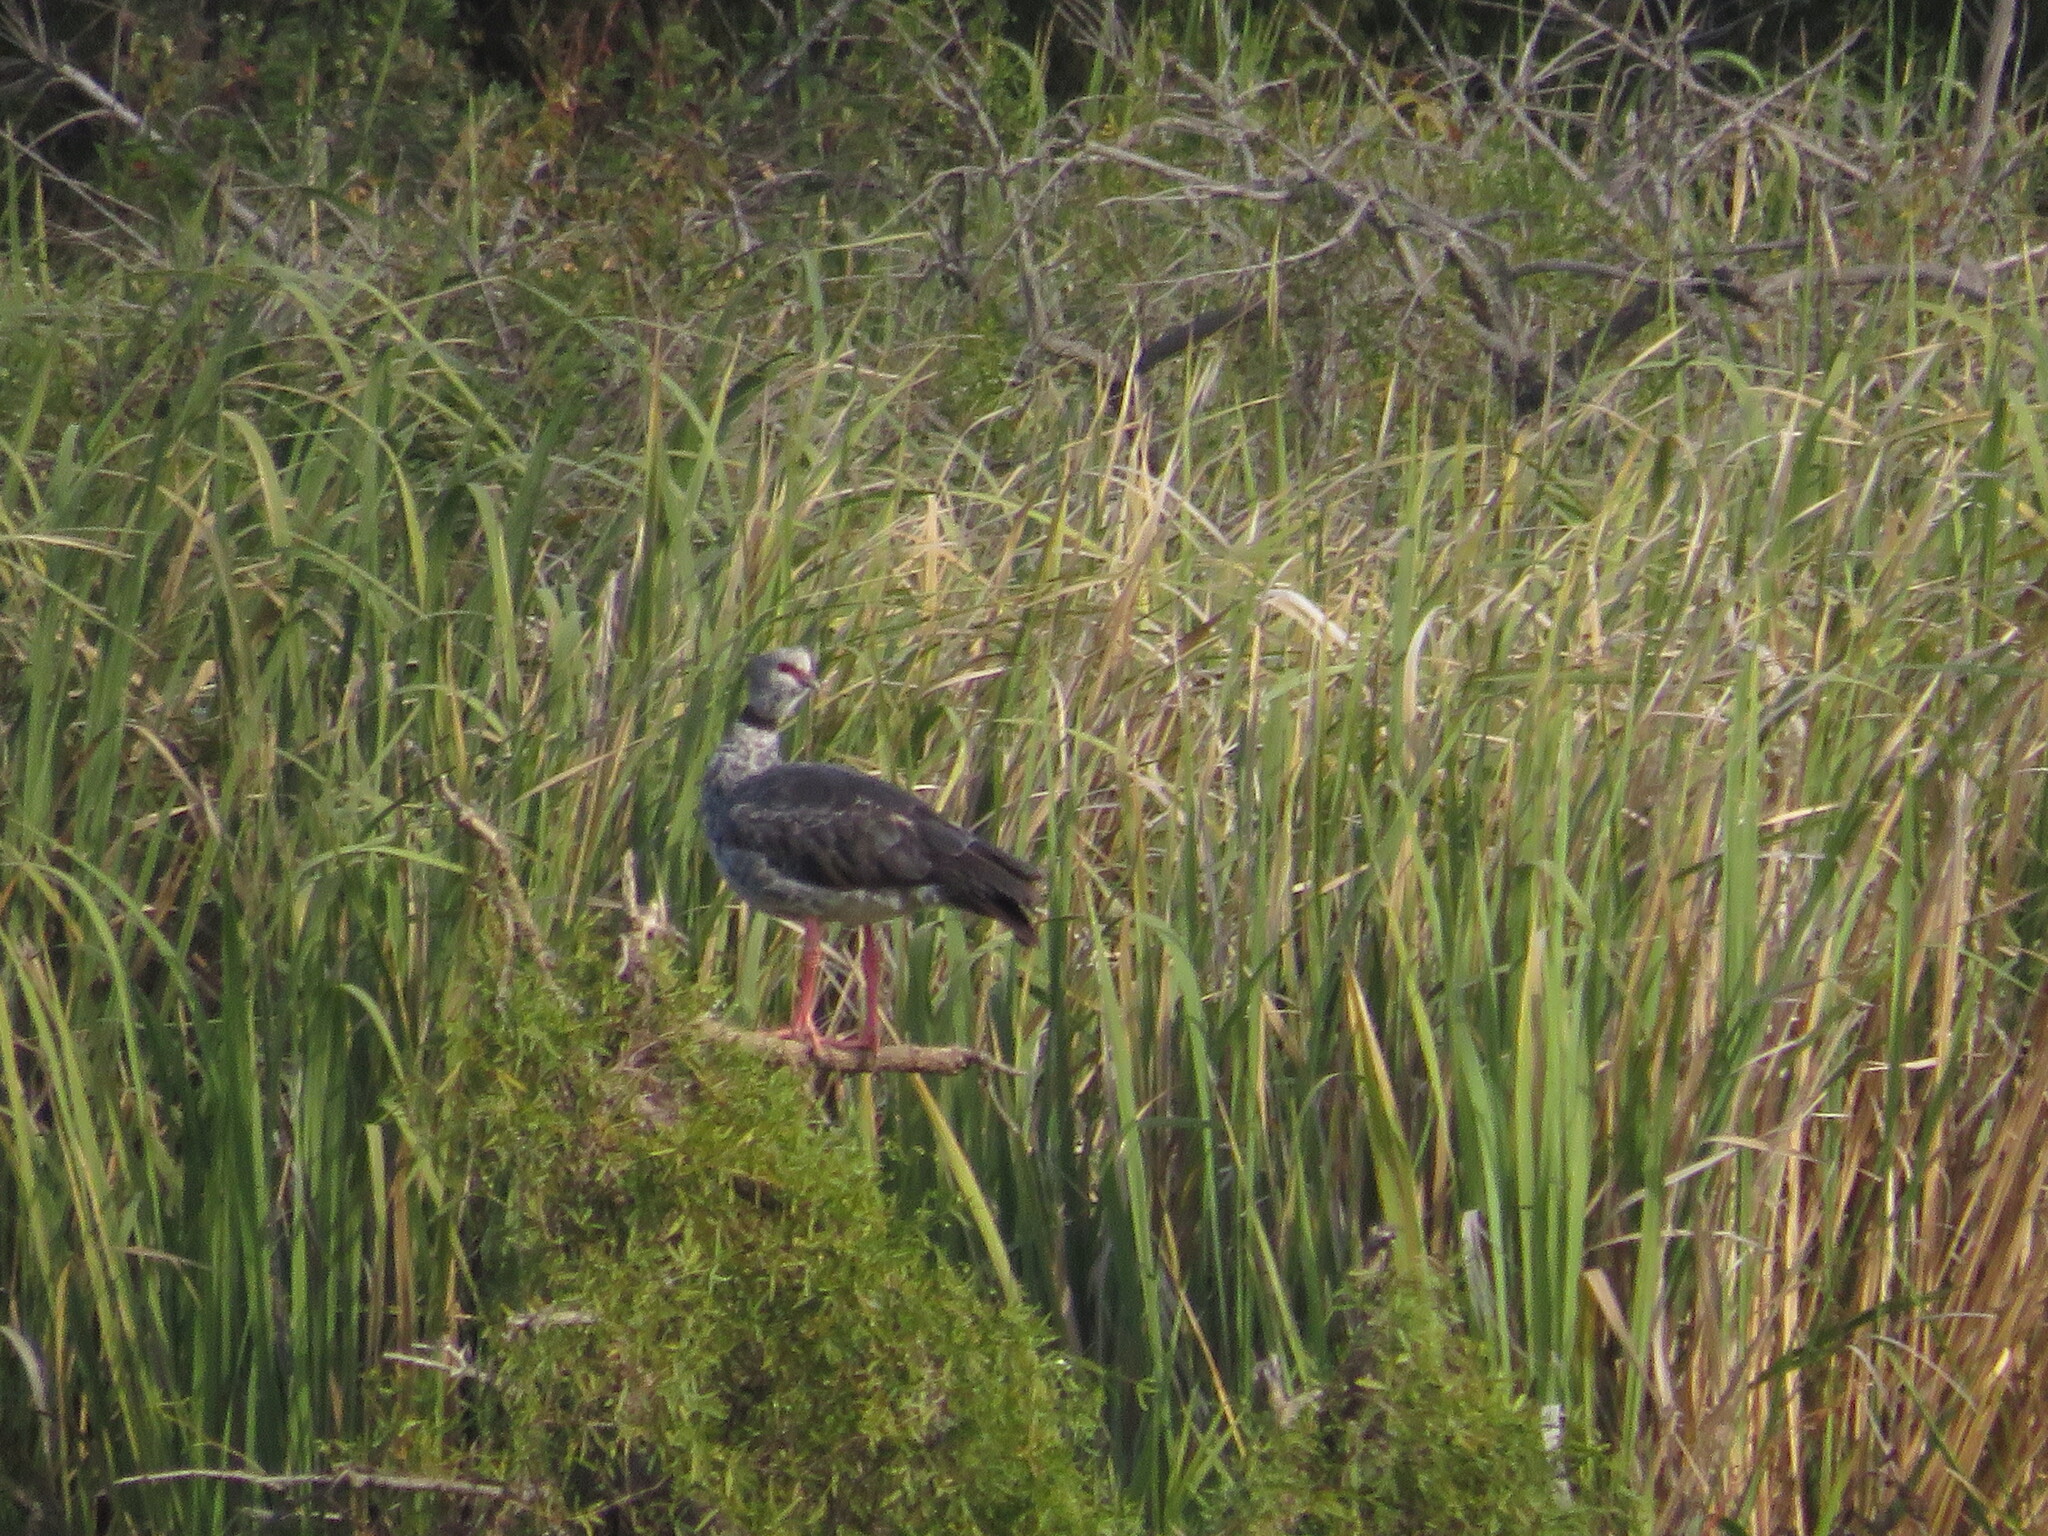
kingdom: Animalia
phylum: Chordata
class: Aves
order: Anseriformes
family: Anhimidae
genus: Chauna
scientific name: Chauna torquata
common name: Southern screamer
